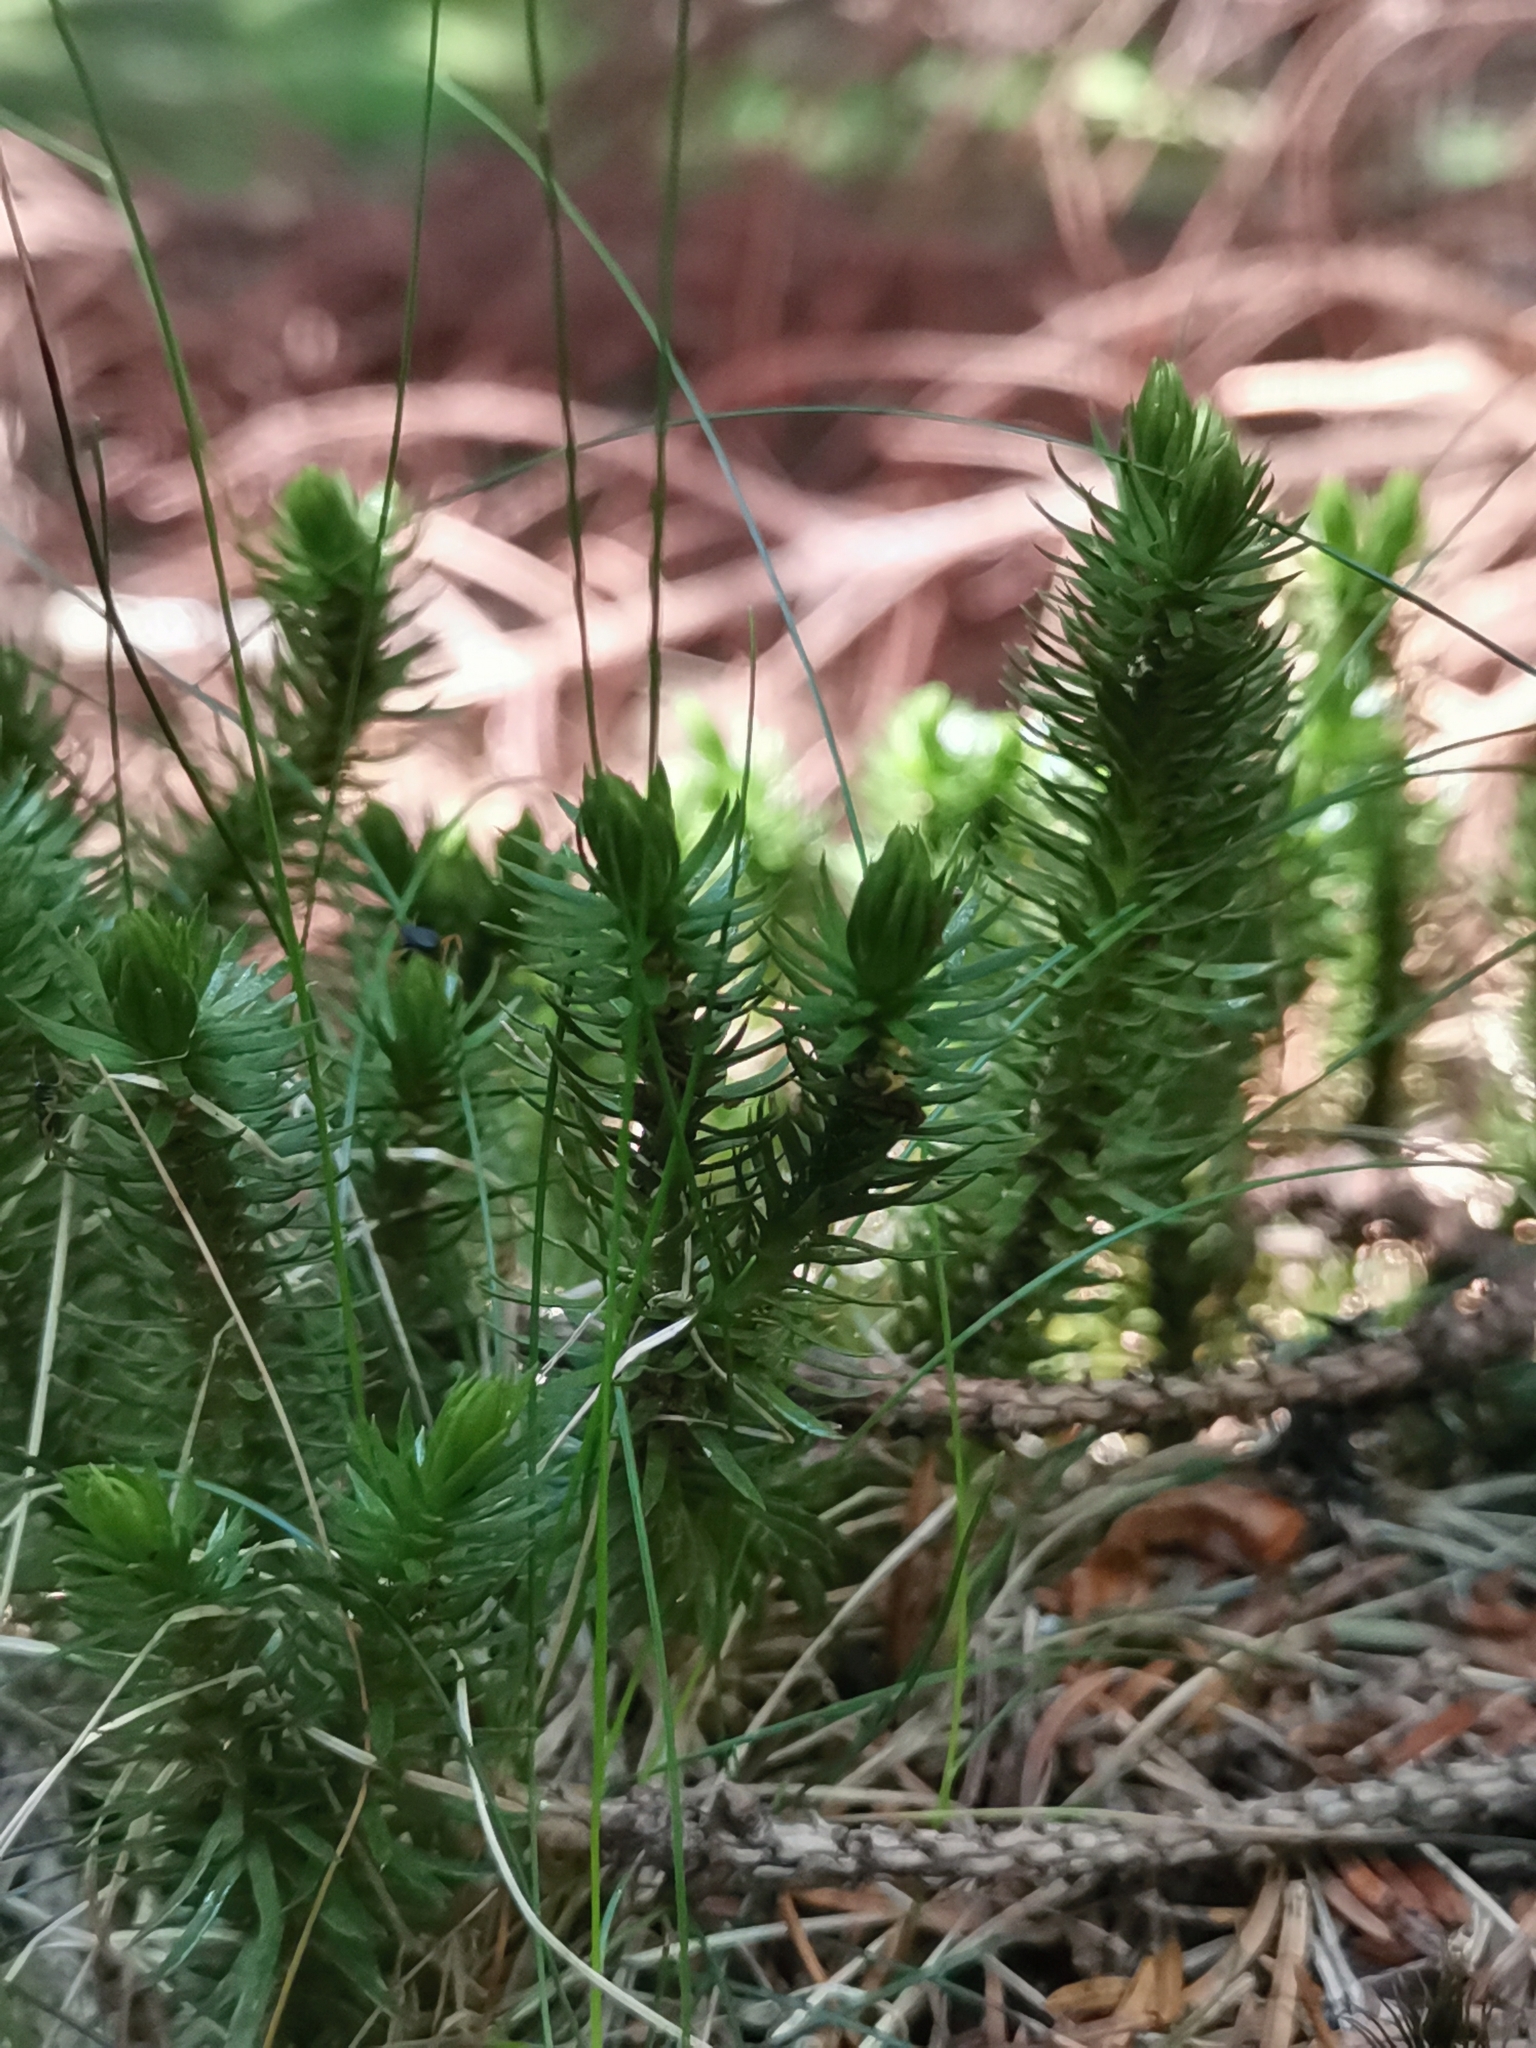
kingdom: Plantae
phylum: Tracheophyta
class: Lycopodiopsida
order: Lycopodiales
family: Lycopodiaceae
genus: Huperzia
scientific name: Huperzia selago
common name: Northern firmoss
